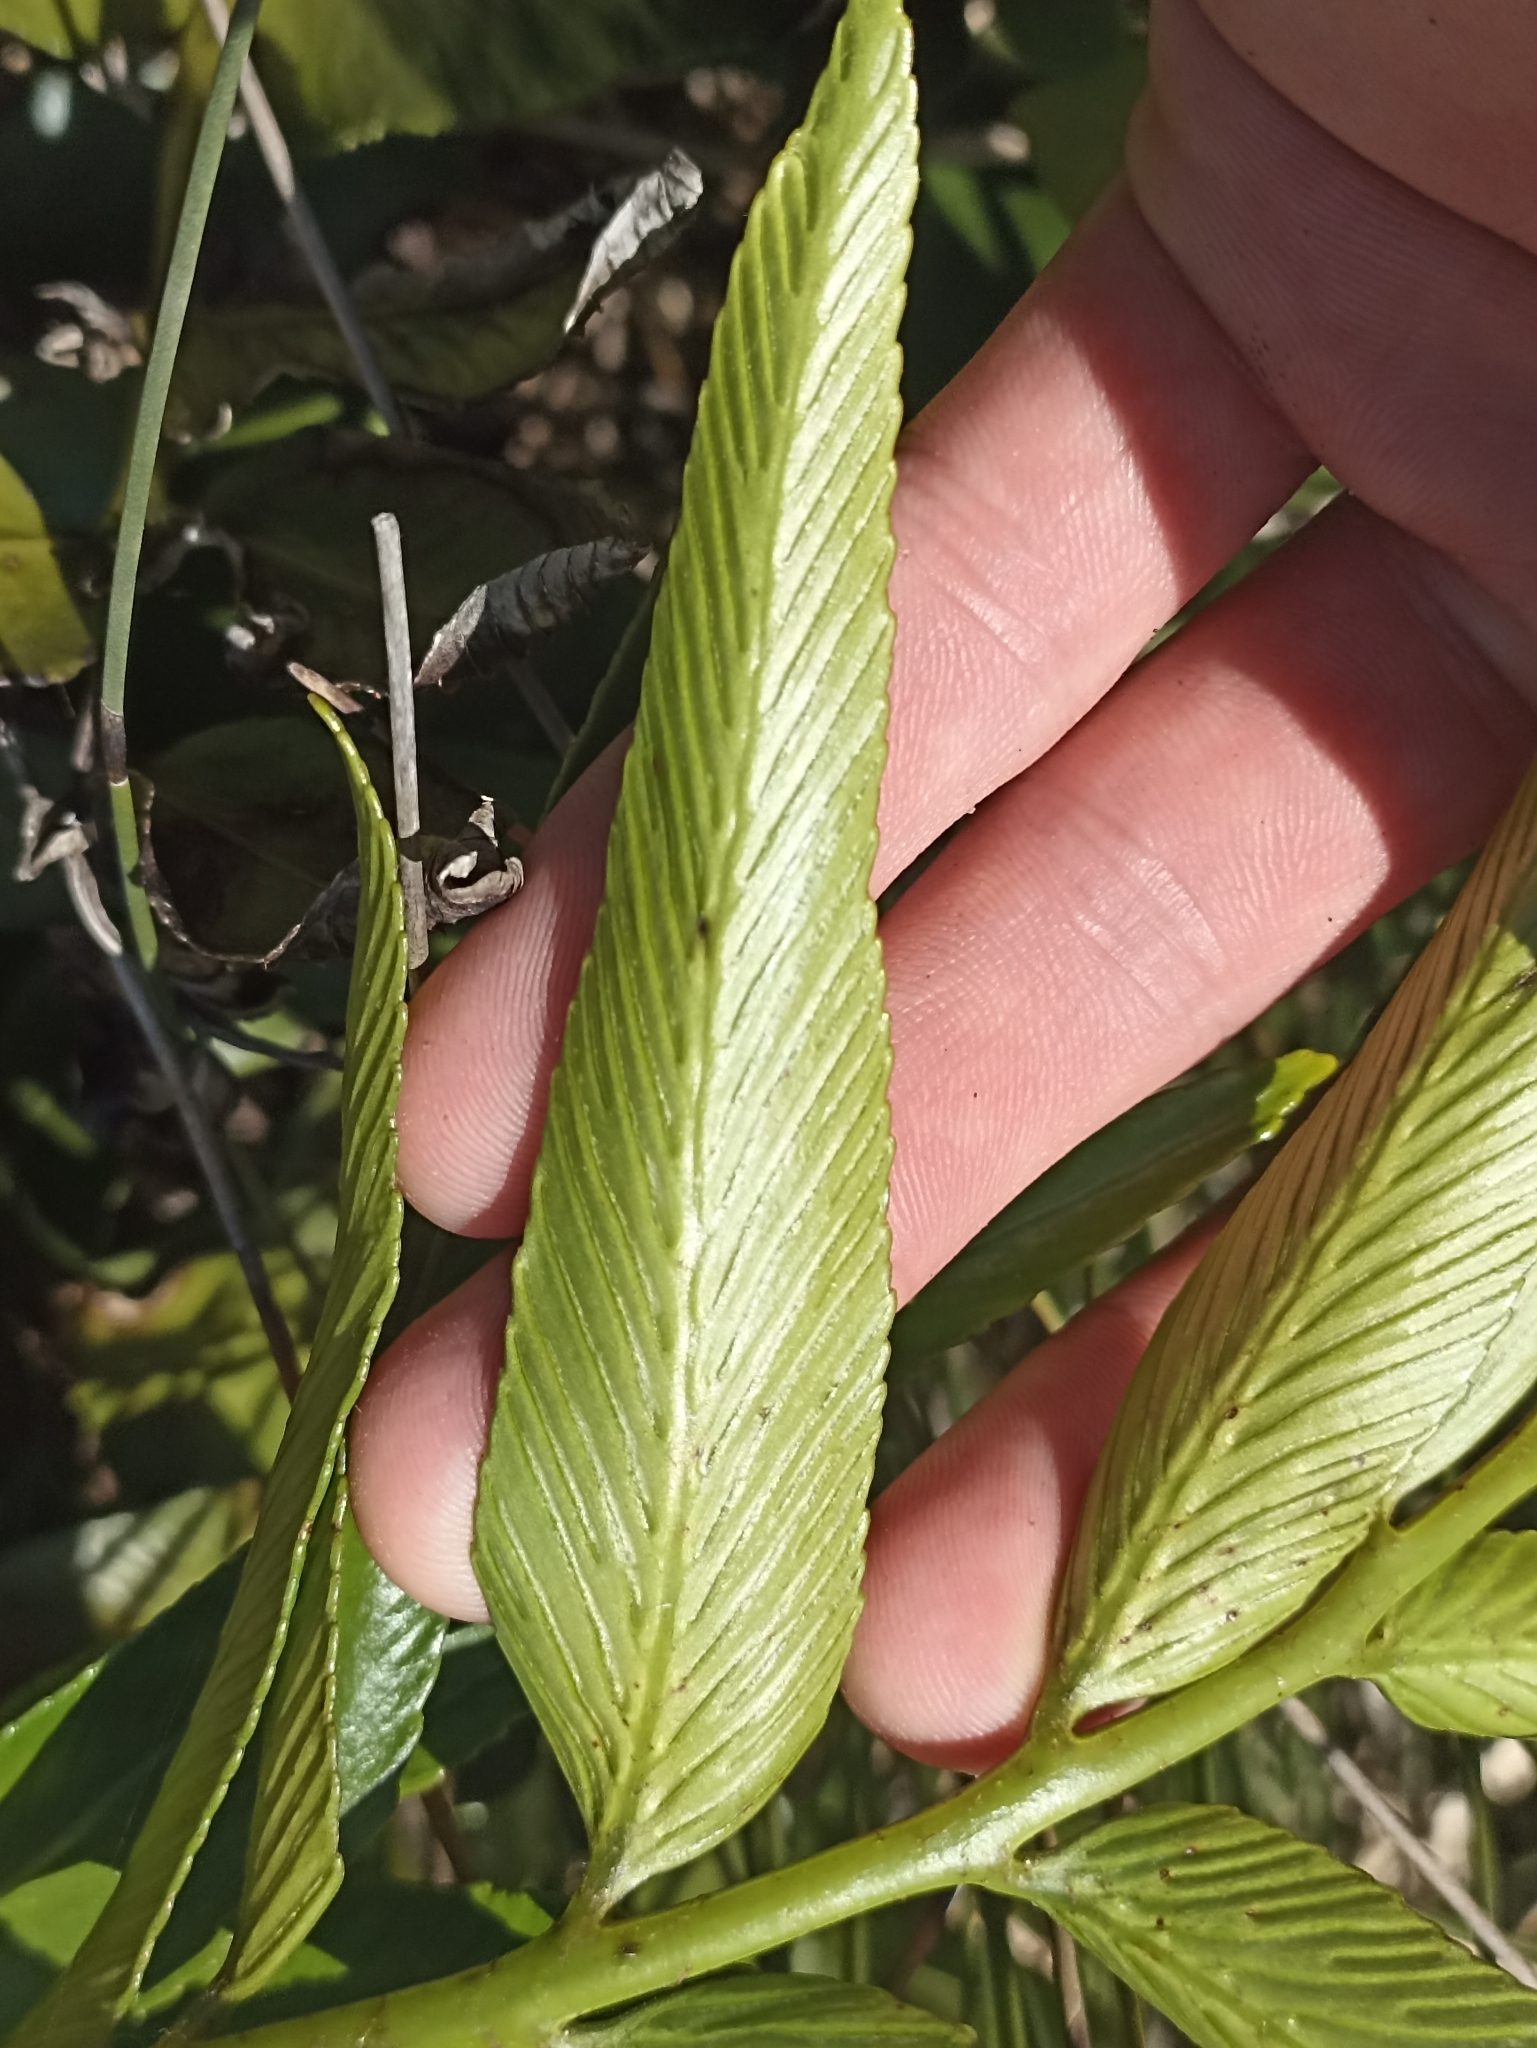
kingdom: Plantae
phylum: Tracheophyta
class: Polypodiopsida
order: Polypodiales
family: Aspleniaceae
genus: Asplenium
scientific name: Asplenium oblongifolium
